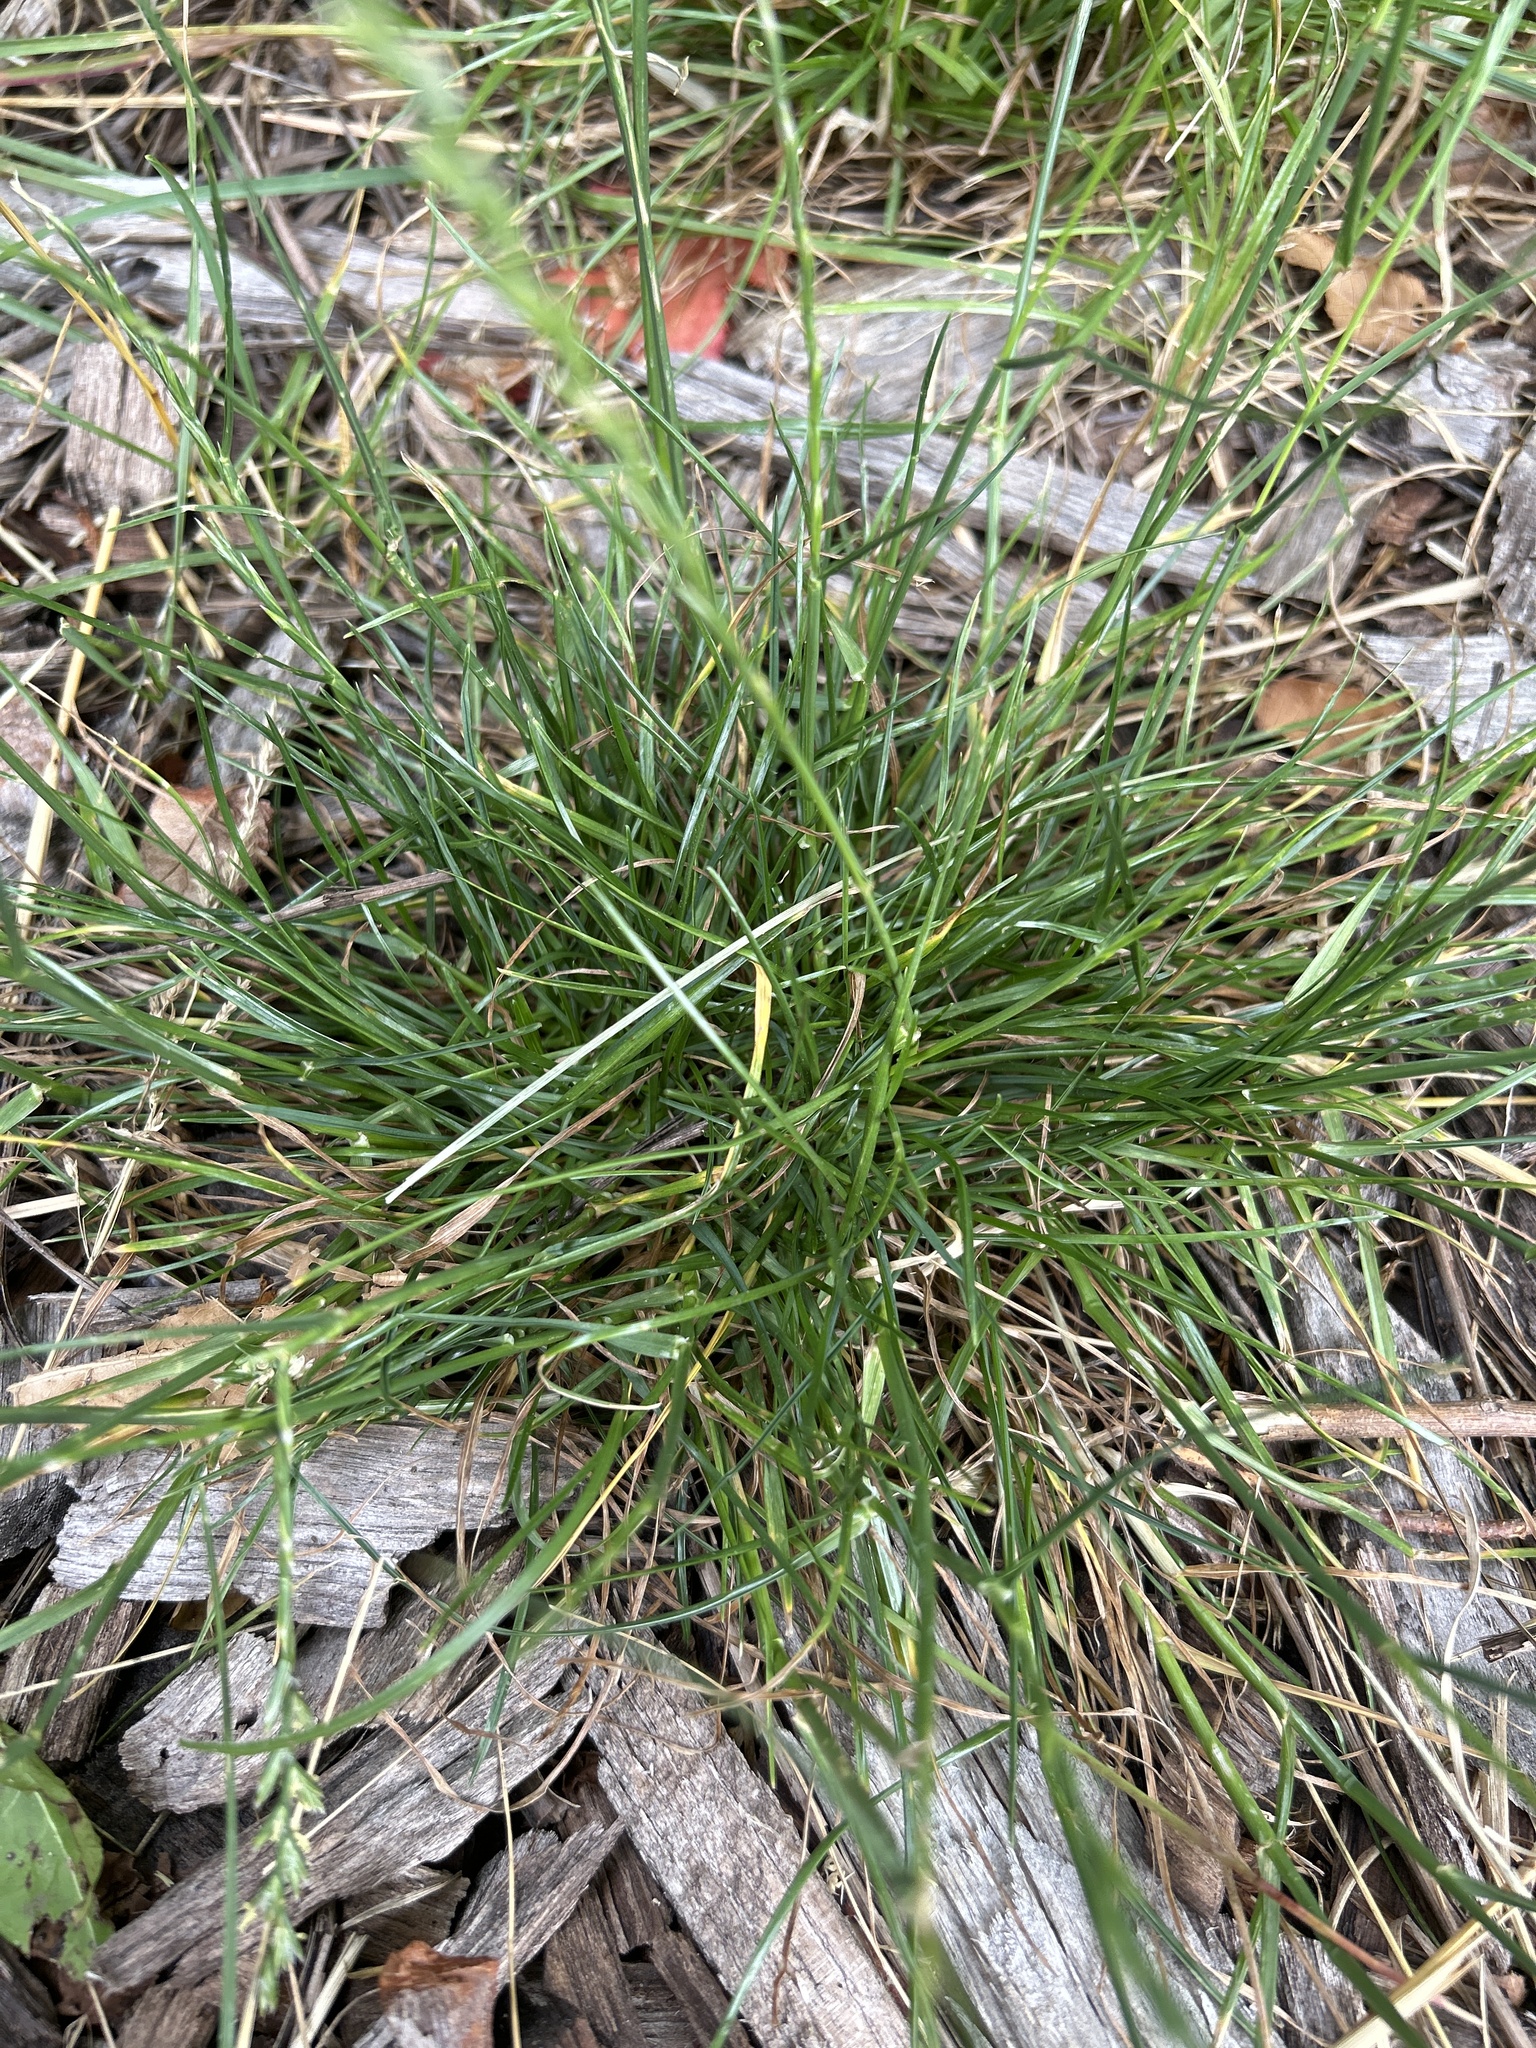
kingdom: Plantae
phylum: Tracheophyta
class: Liliopsida
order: Poales
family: Poaceae
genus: Lolium
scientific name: Lolium perenne
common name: Perennial ryegrass
